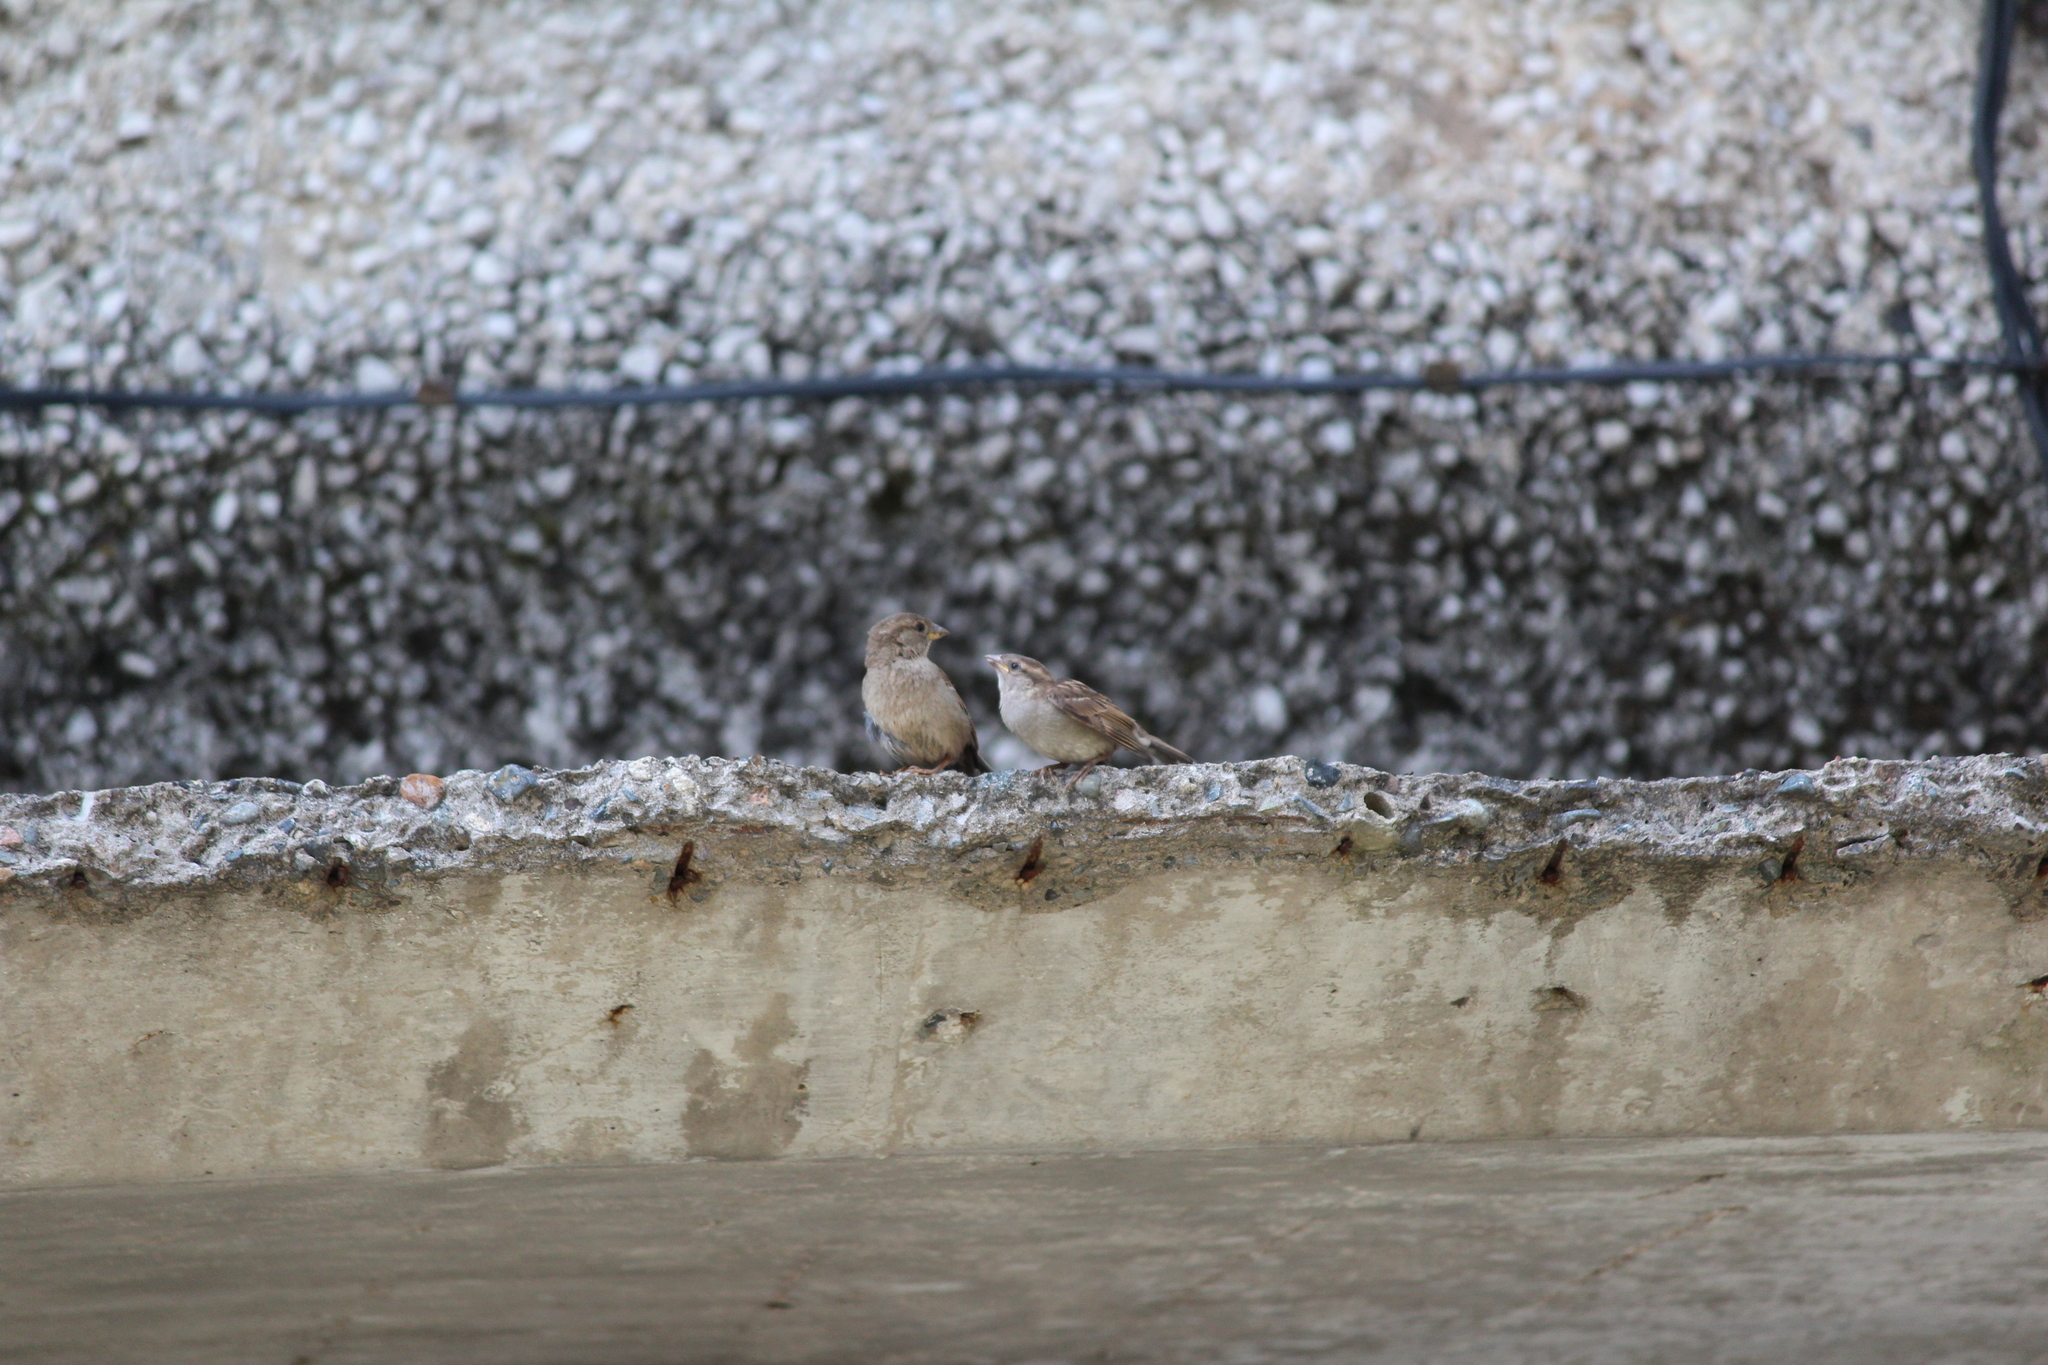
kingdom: Animalia
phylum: Chordata
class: Aves
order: Passeriformes
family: Passeridae
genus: Passer
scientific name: Passer domesticus
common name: House sparrow
